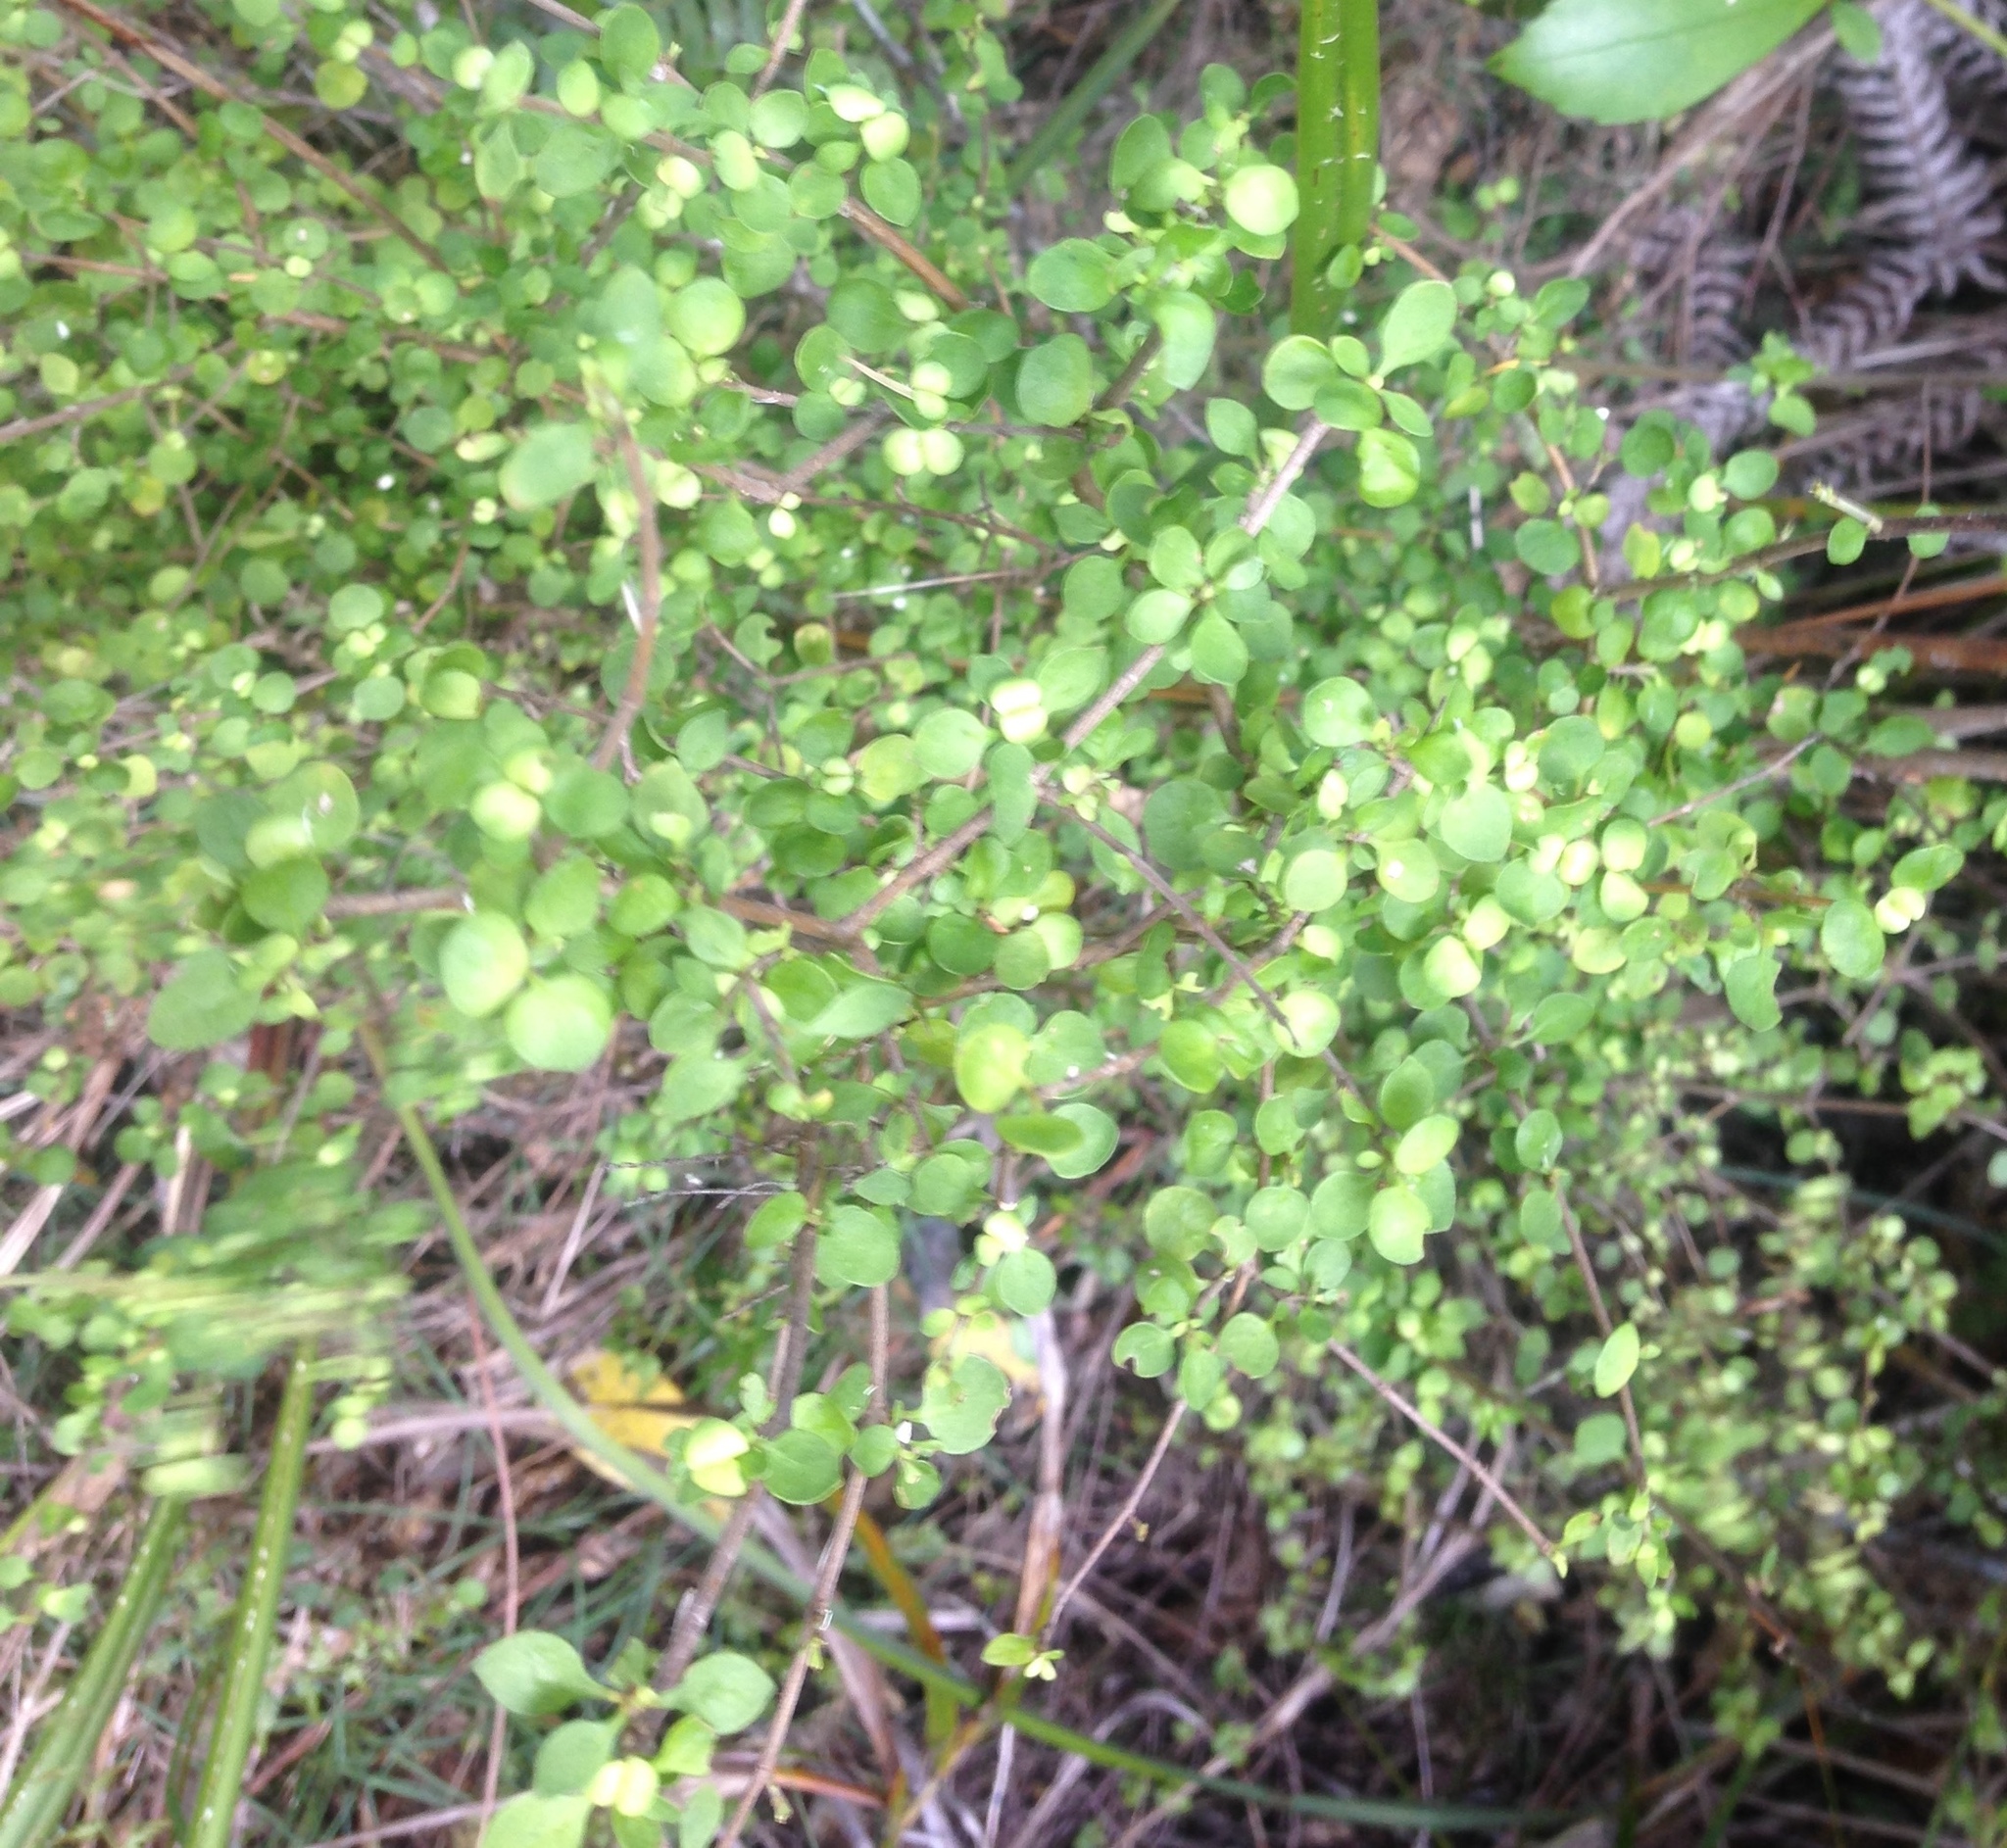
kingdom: Plantae
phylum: Tracheophyta
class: Magnoliopsida
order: Gentianales
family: Rubiaceae
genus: Coprosma
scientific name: Coprosma rhamnoides
